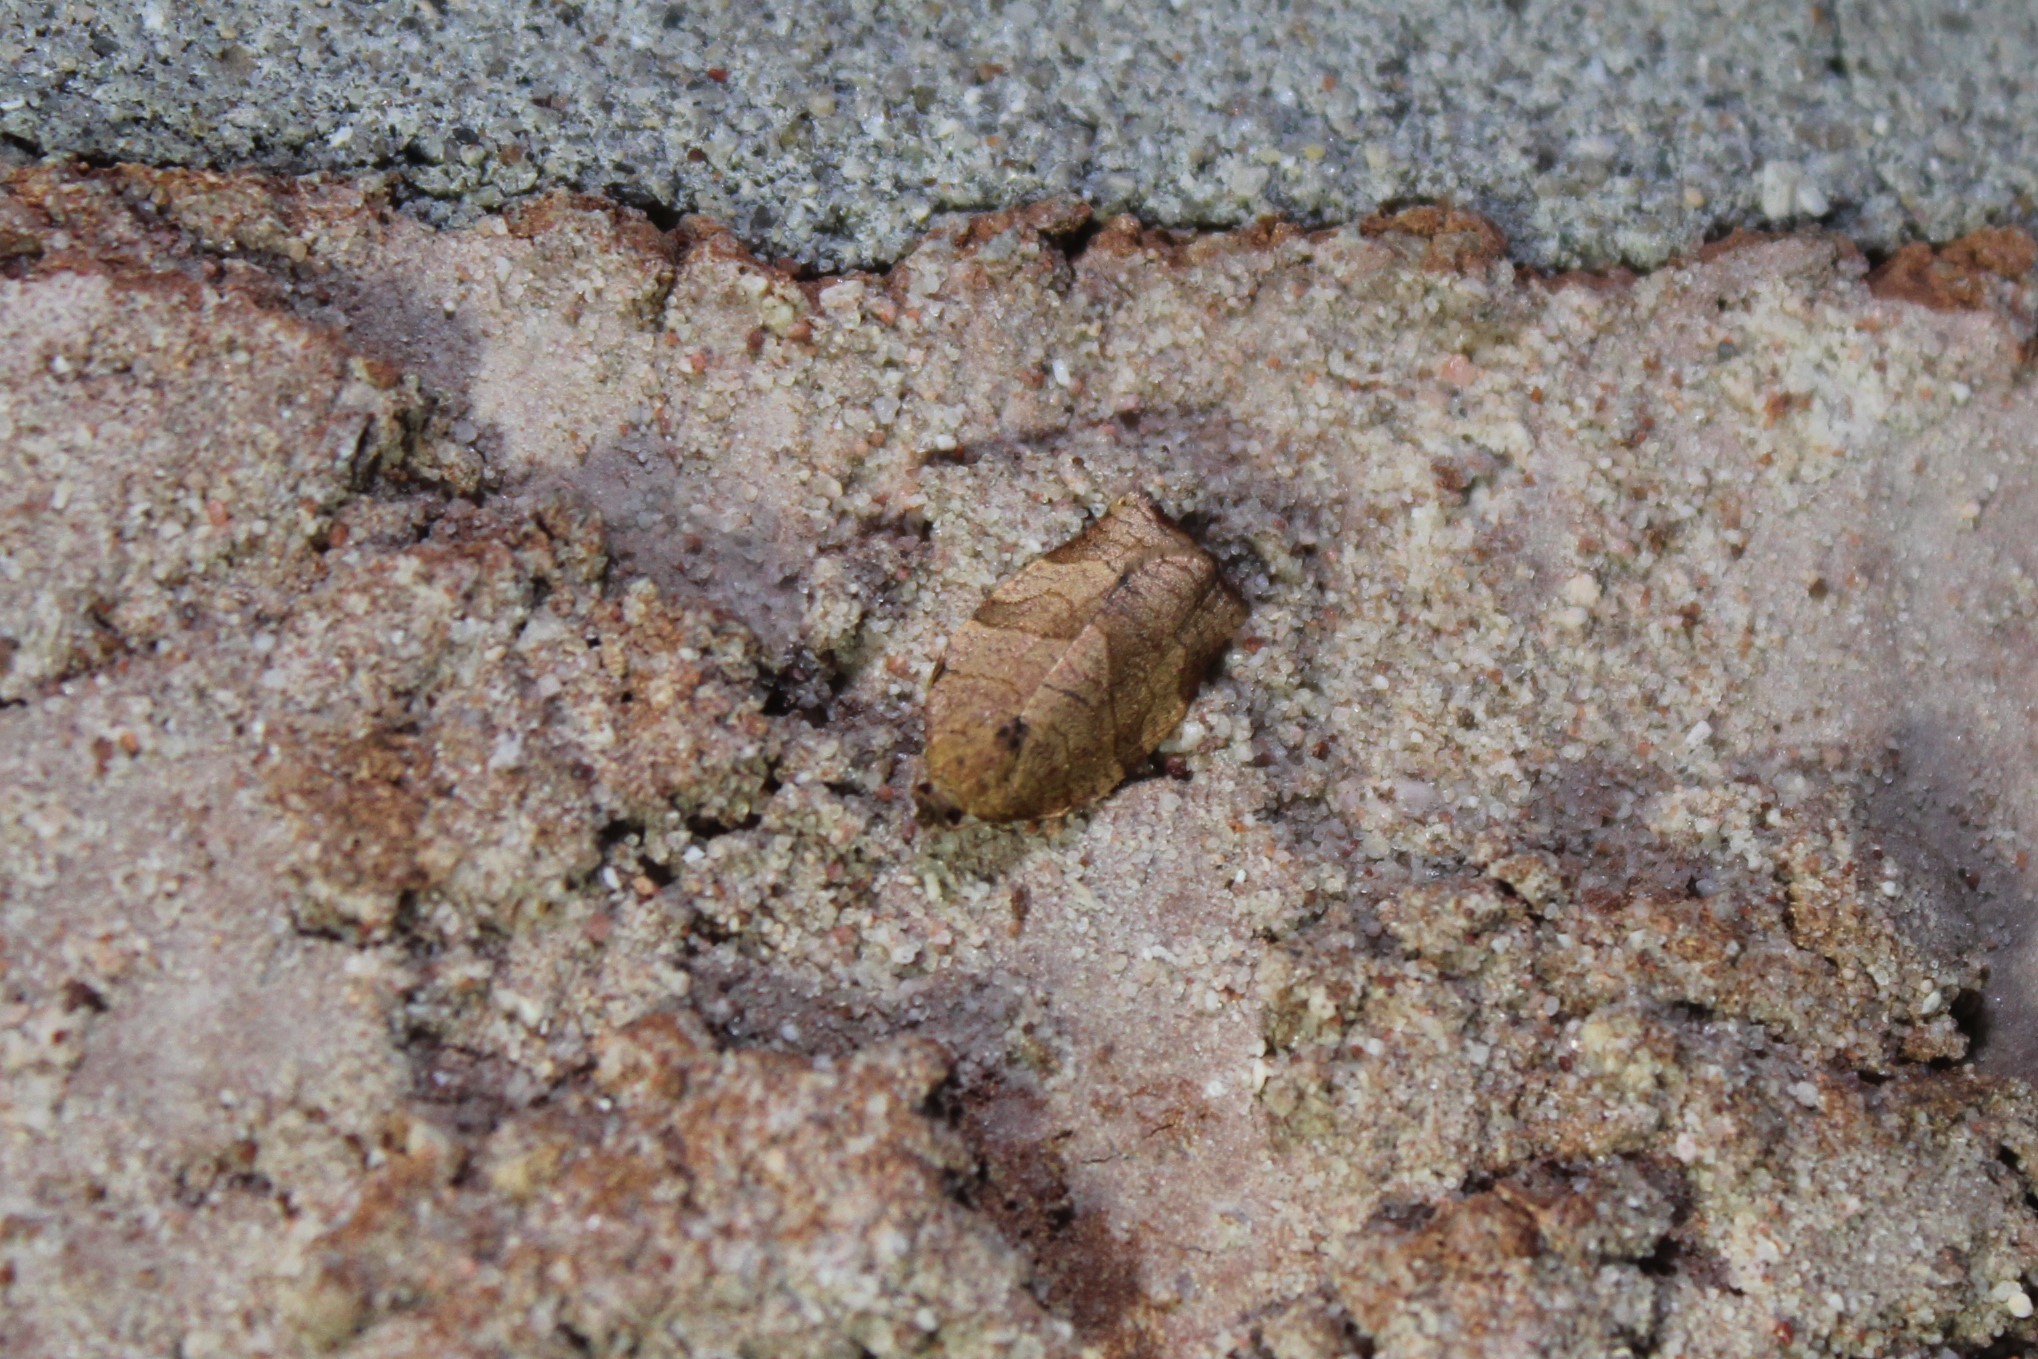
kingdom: Animalia
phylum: Arthropoda
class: Insecta
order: Lepidoptera
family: Tortricidae
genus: Choristoneura
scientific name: Choristoneura rosaceana
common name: Oblique-banded leafroller moth
